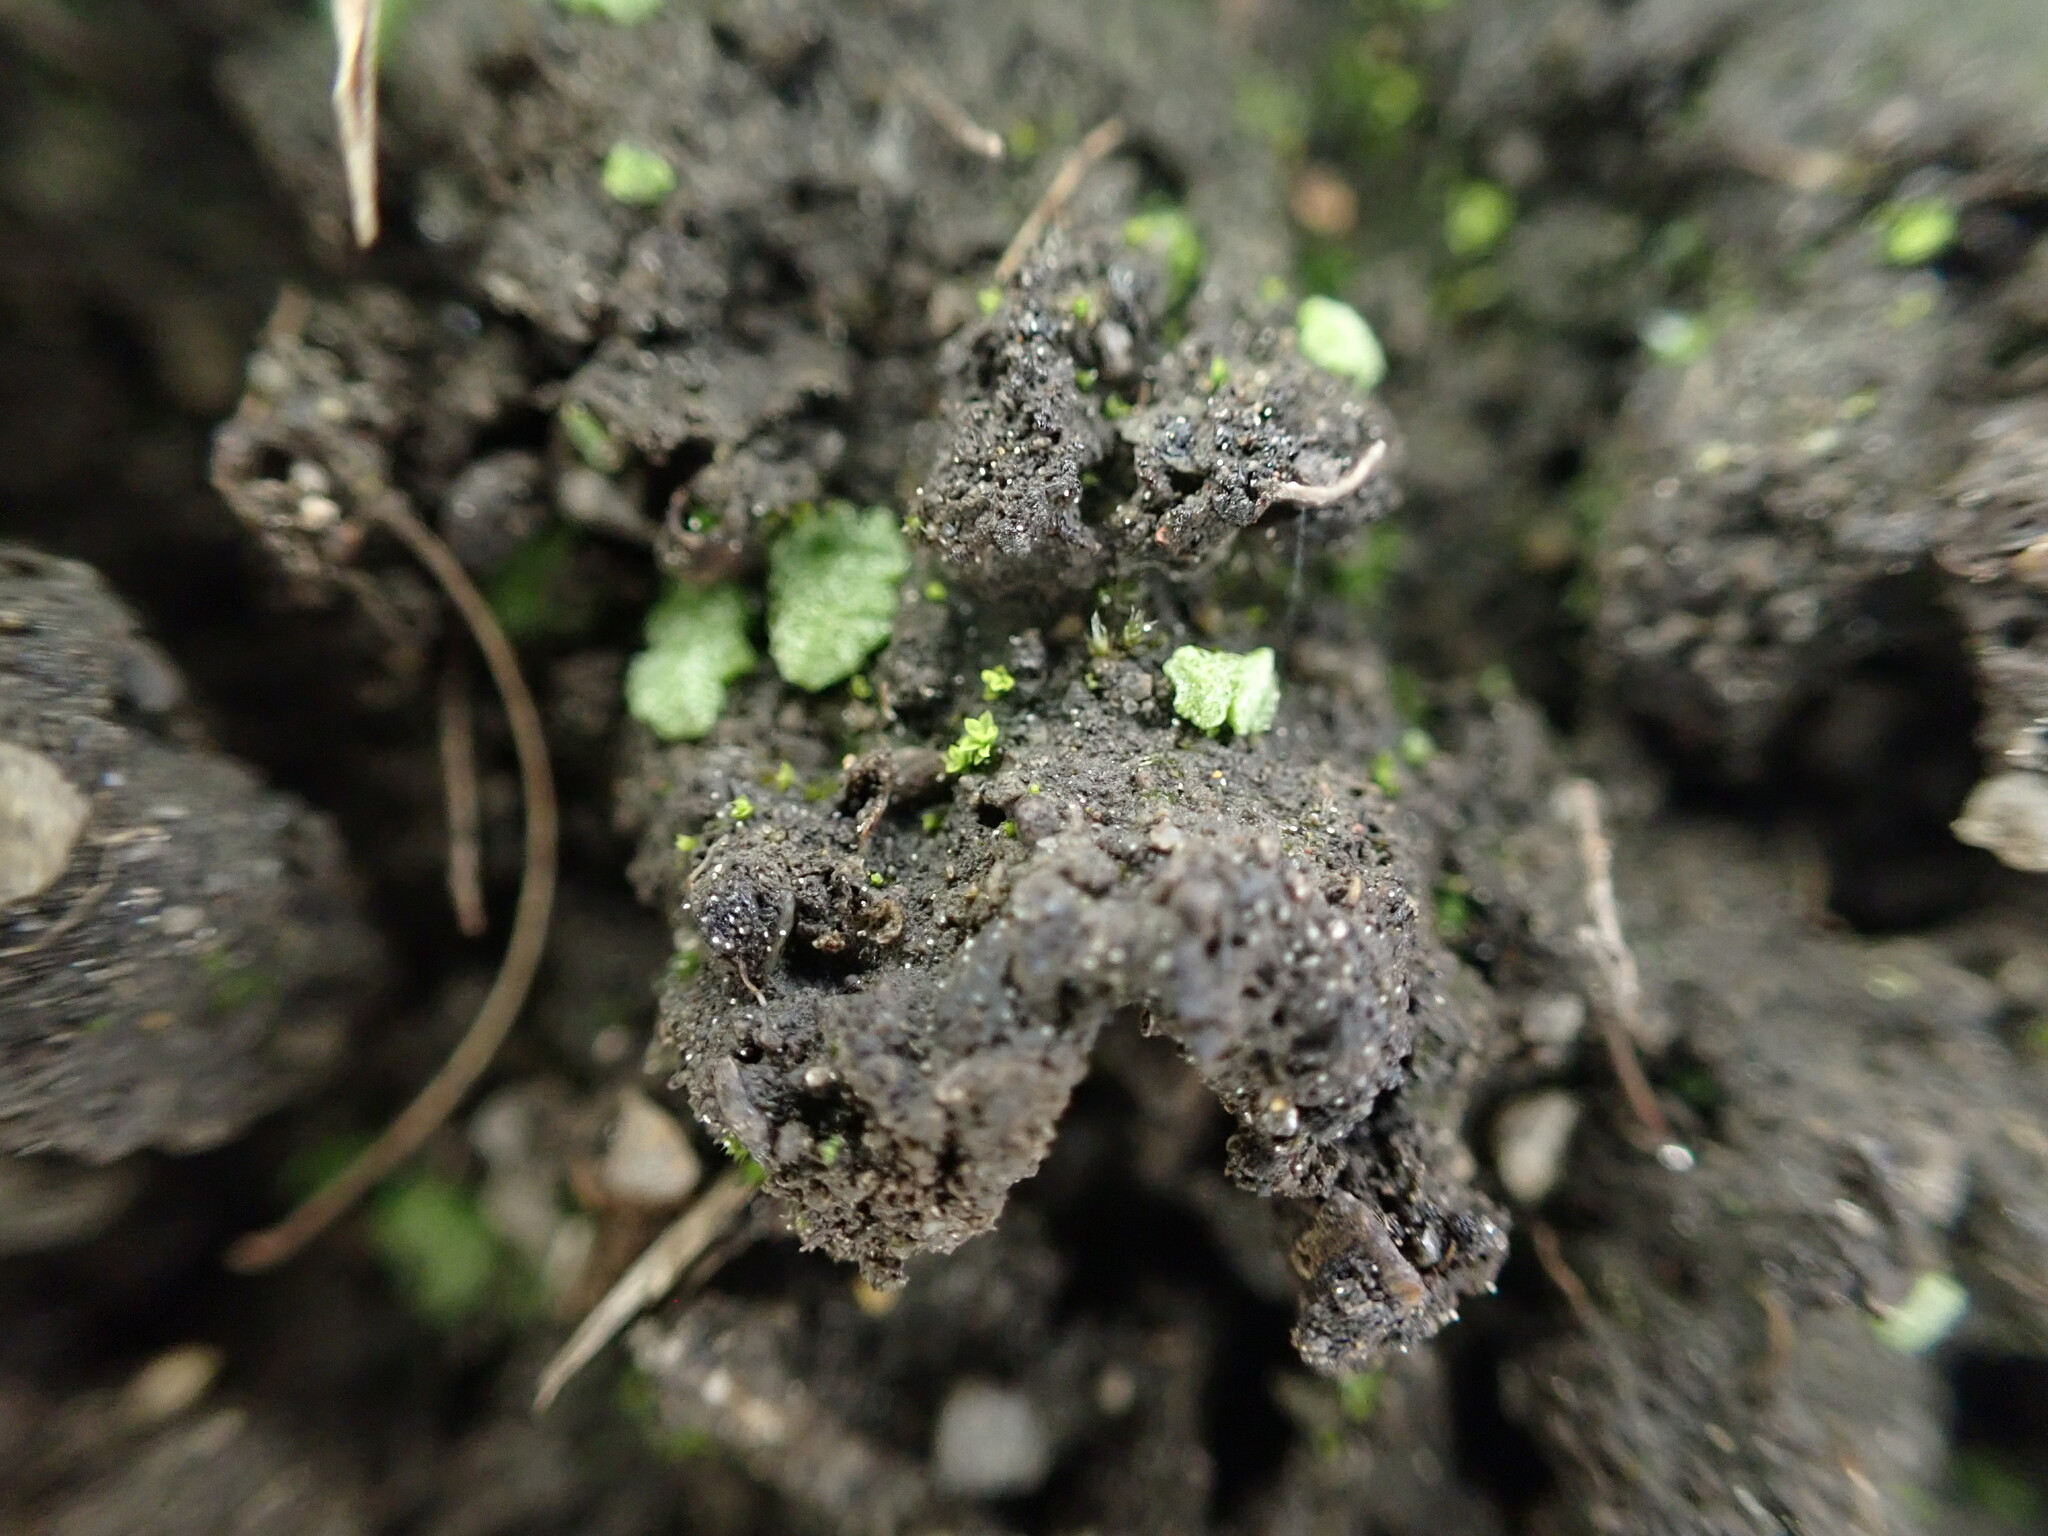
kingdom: Plantae
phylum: Marchantiophyta
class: Marchantiopsida
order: Marchantiales
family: Ricciaceae
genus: Riccia
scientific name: Riccia cavernosa
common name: Cavernous crystalwort
